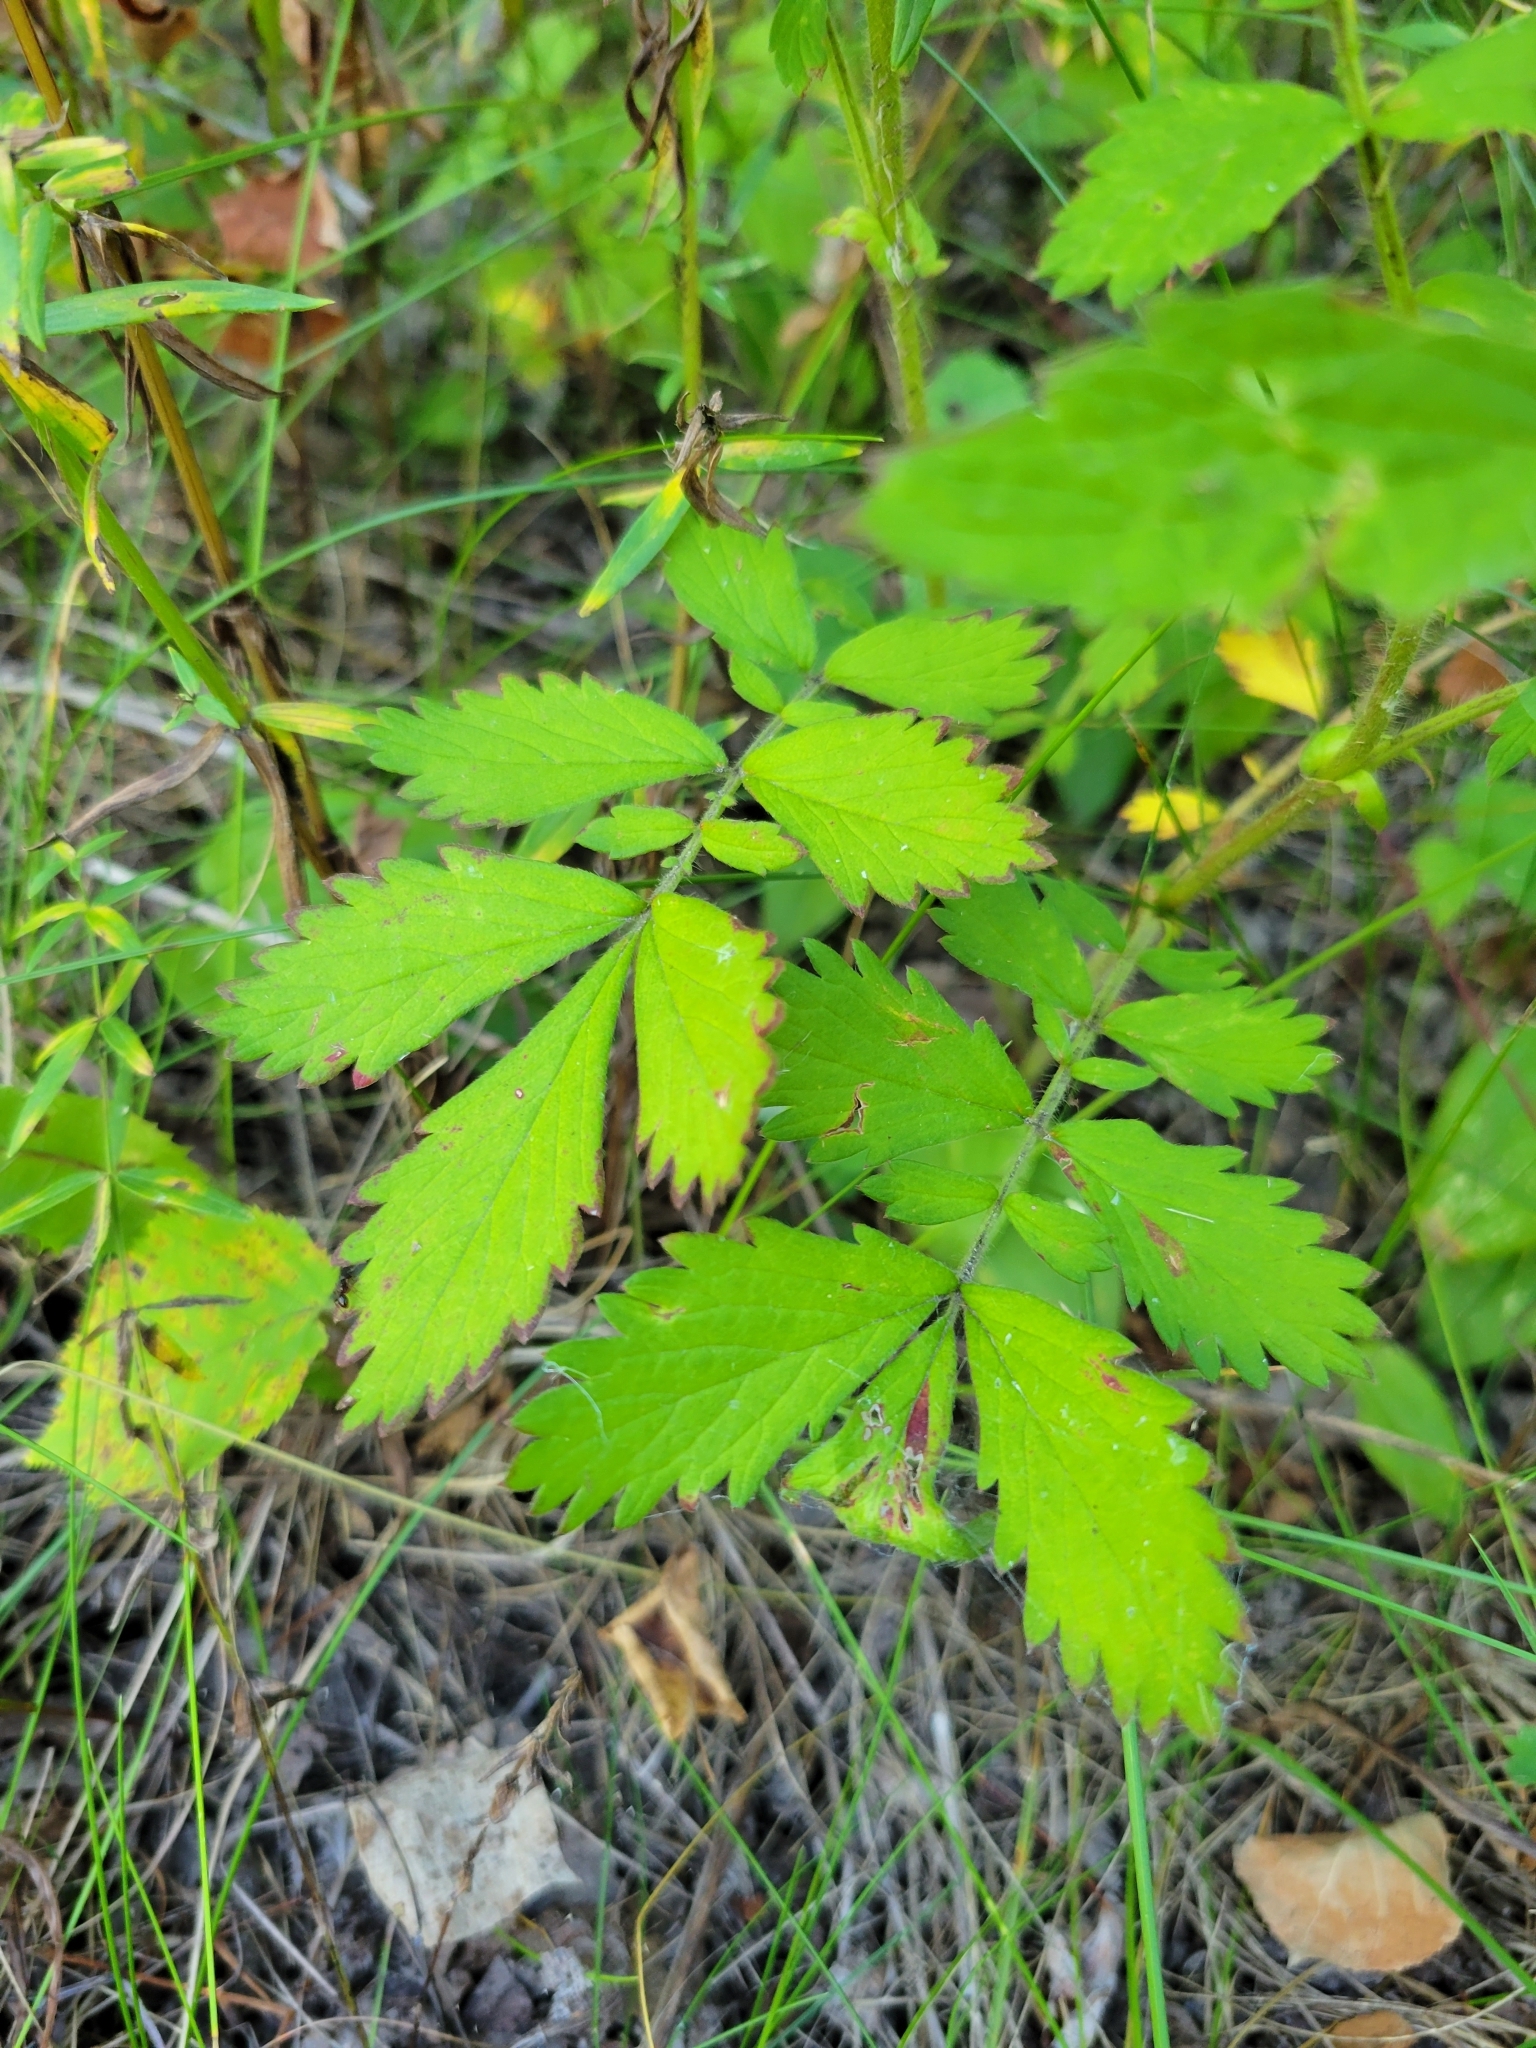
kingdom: Plantae
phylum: Tracheophyta
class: Magnoliopsida
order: Rosales
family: Rosaceae
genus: Agrimonia
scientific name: Agrimonia striata
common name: Britton's agrimony
